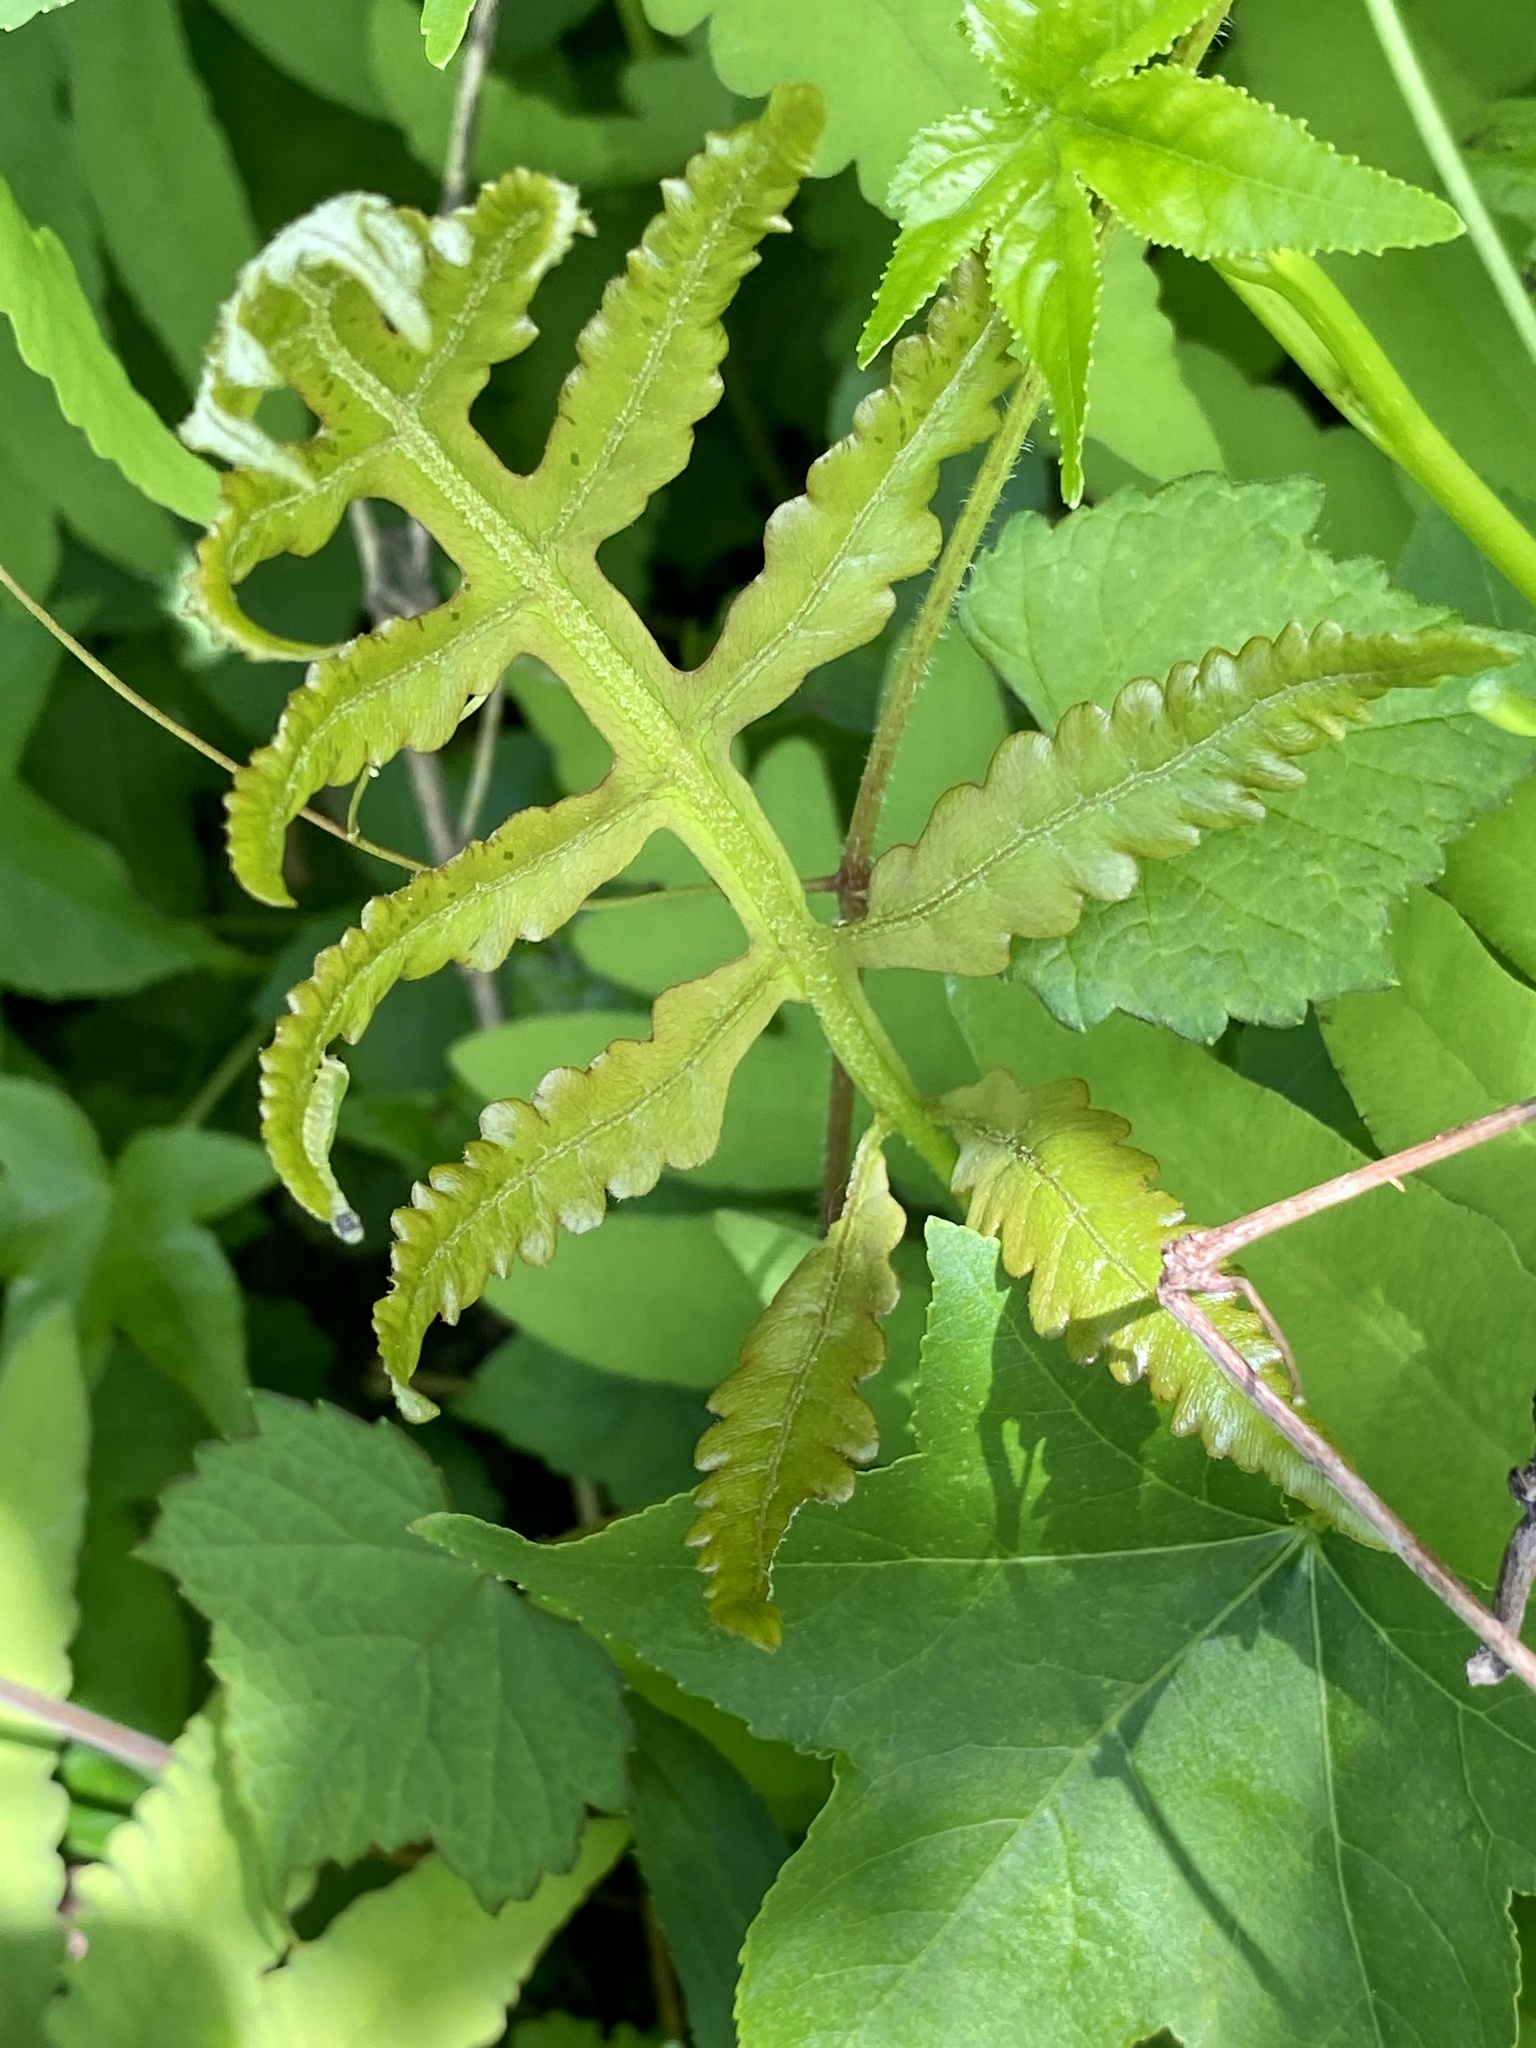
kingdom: Plantae
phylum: Tracheophyta
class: Polypodiopsida
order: Polypodiales
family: Onocleaceae
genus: Onoclea
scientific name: Onoclea sensibilis
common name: Sensitive fern
